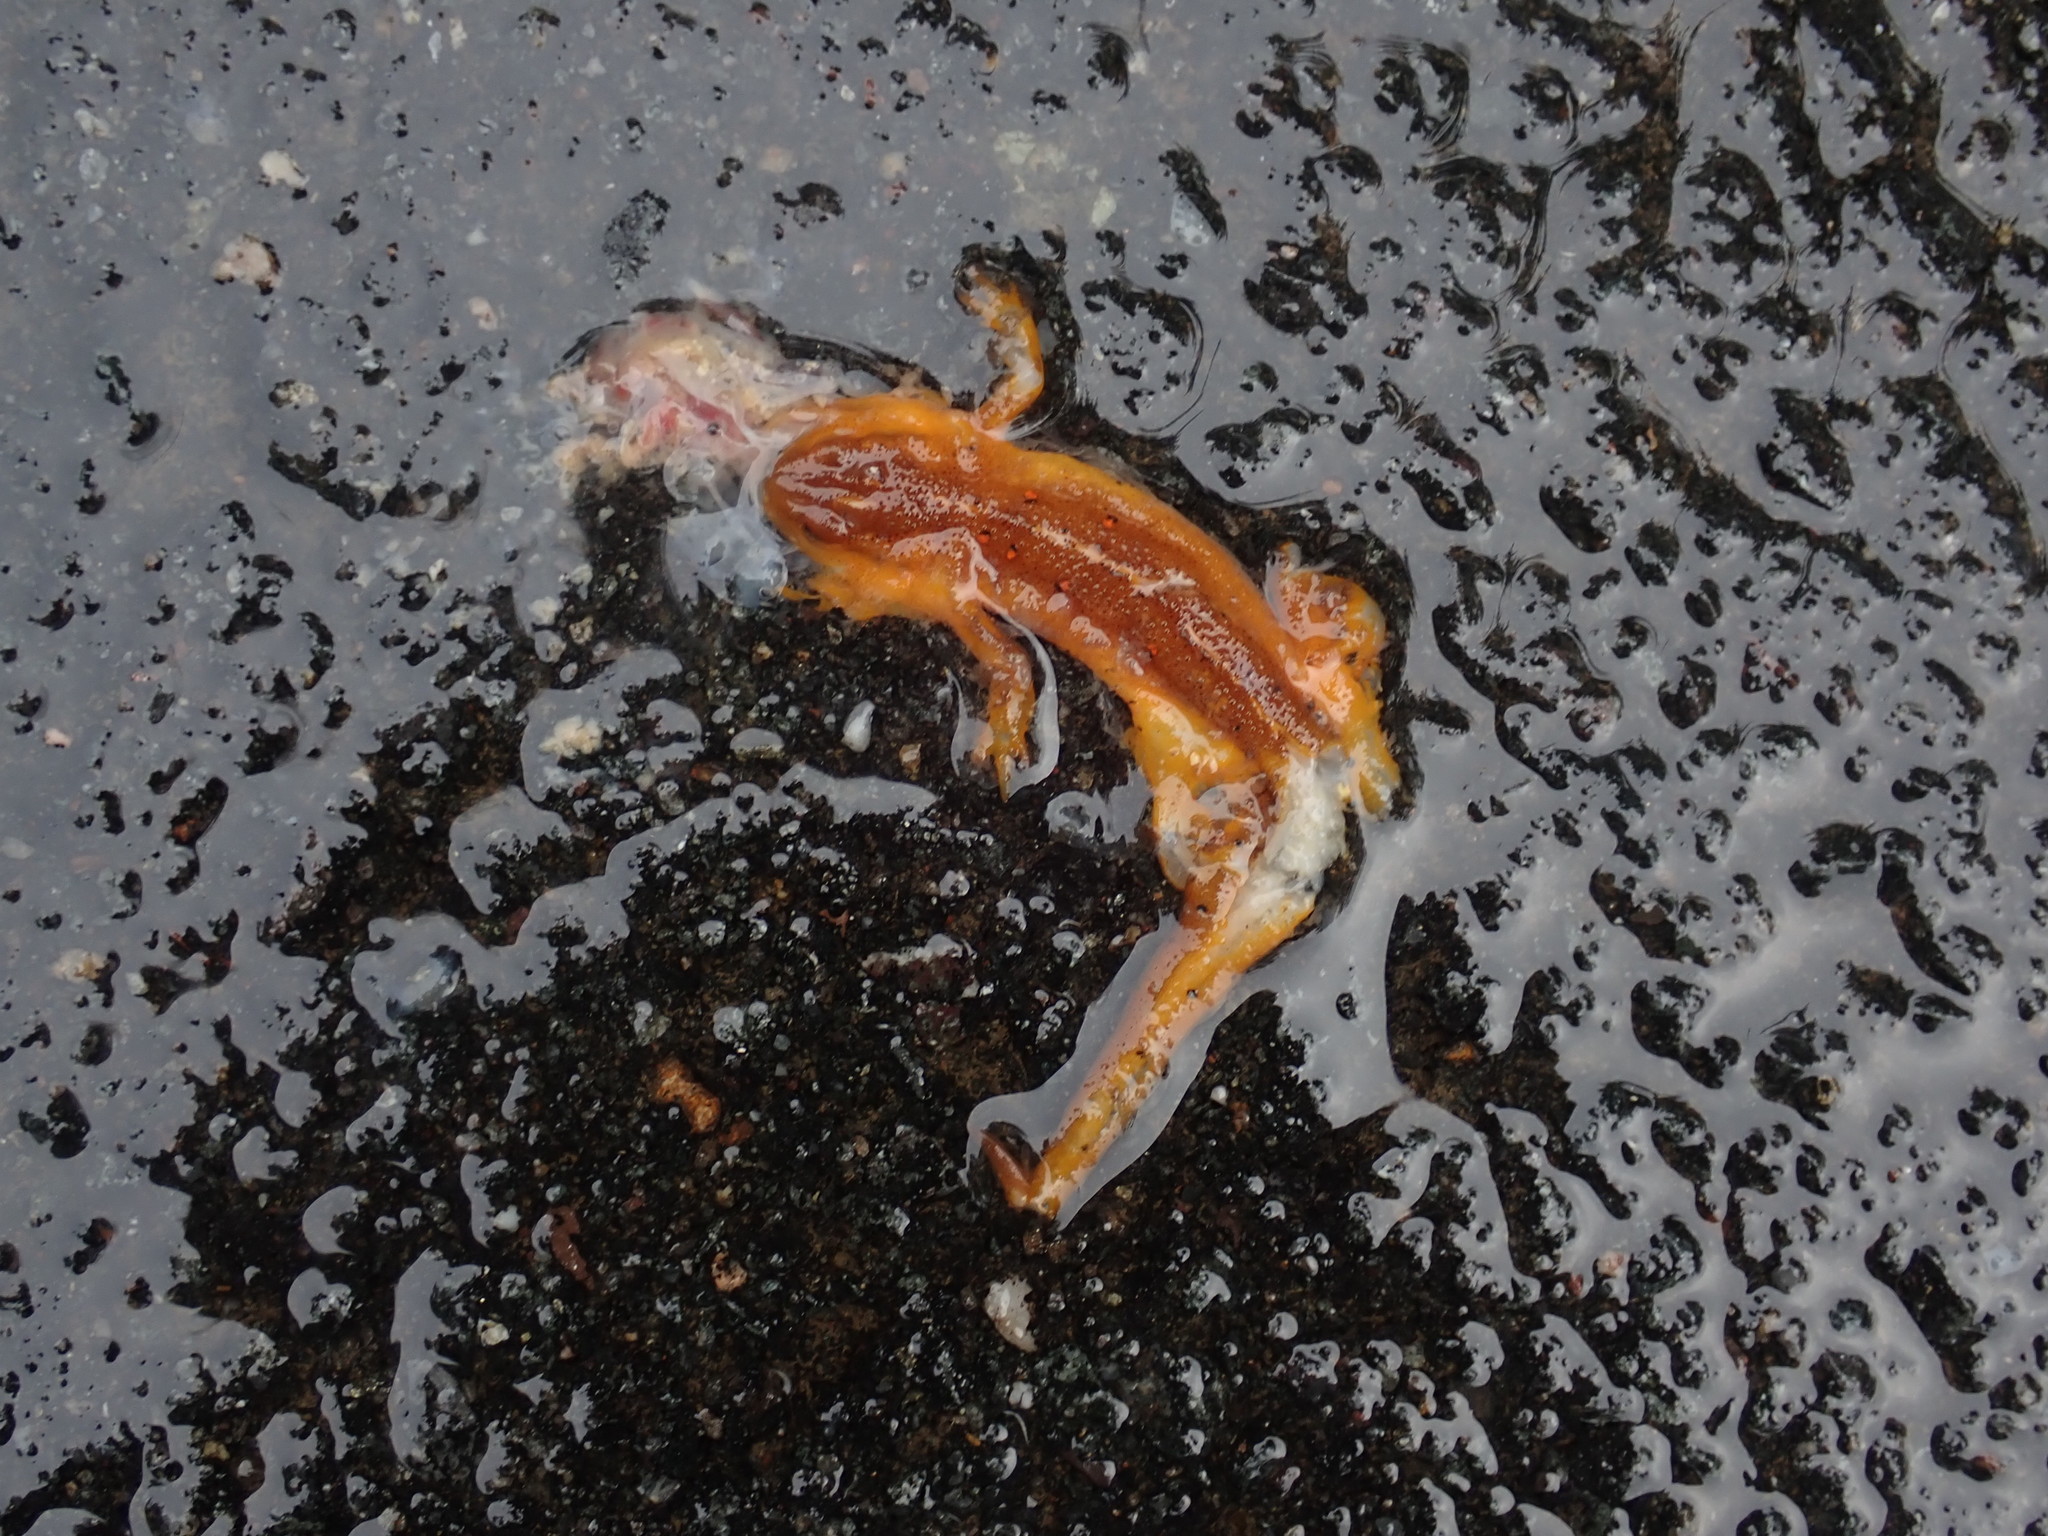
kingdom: Animalia
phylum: Chordata
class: Amphibia
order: Caudata
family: Salamandridae
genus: Notophthalmus
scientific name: Notophthalmus viridescens
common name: Eastern newt
